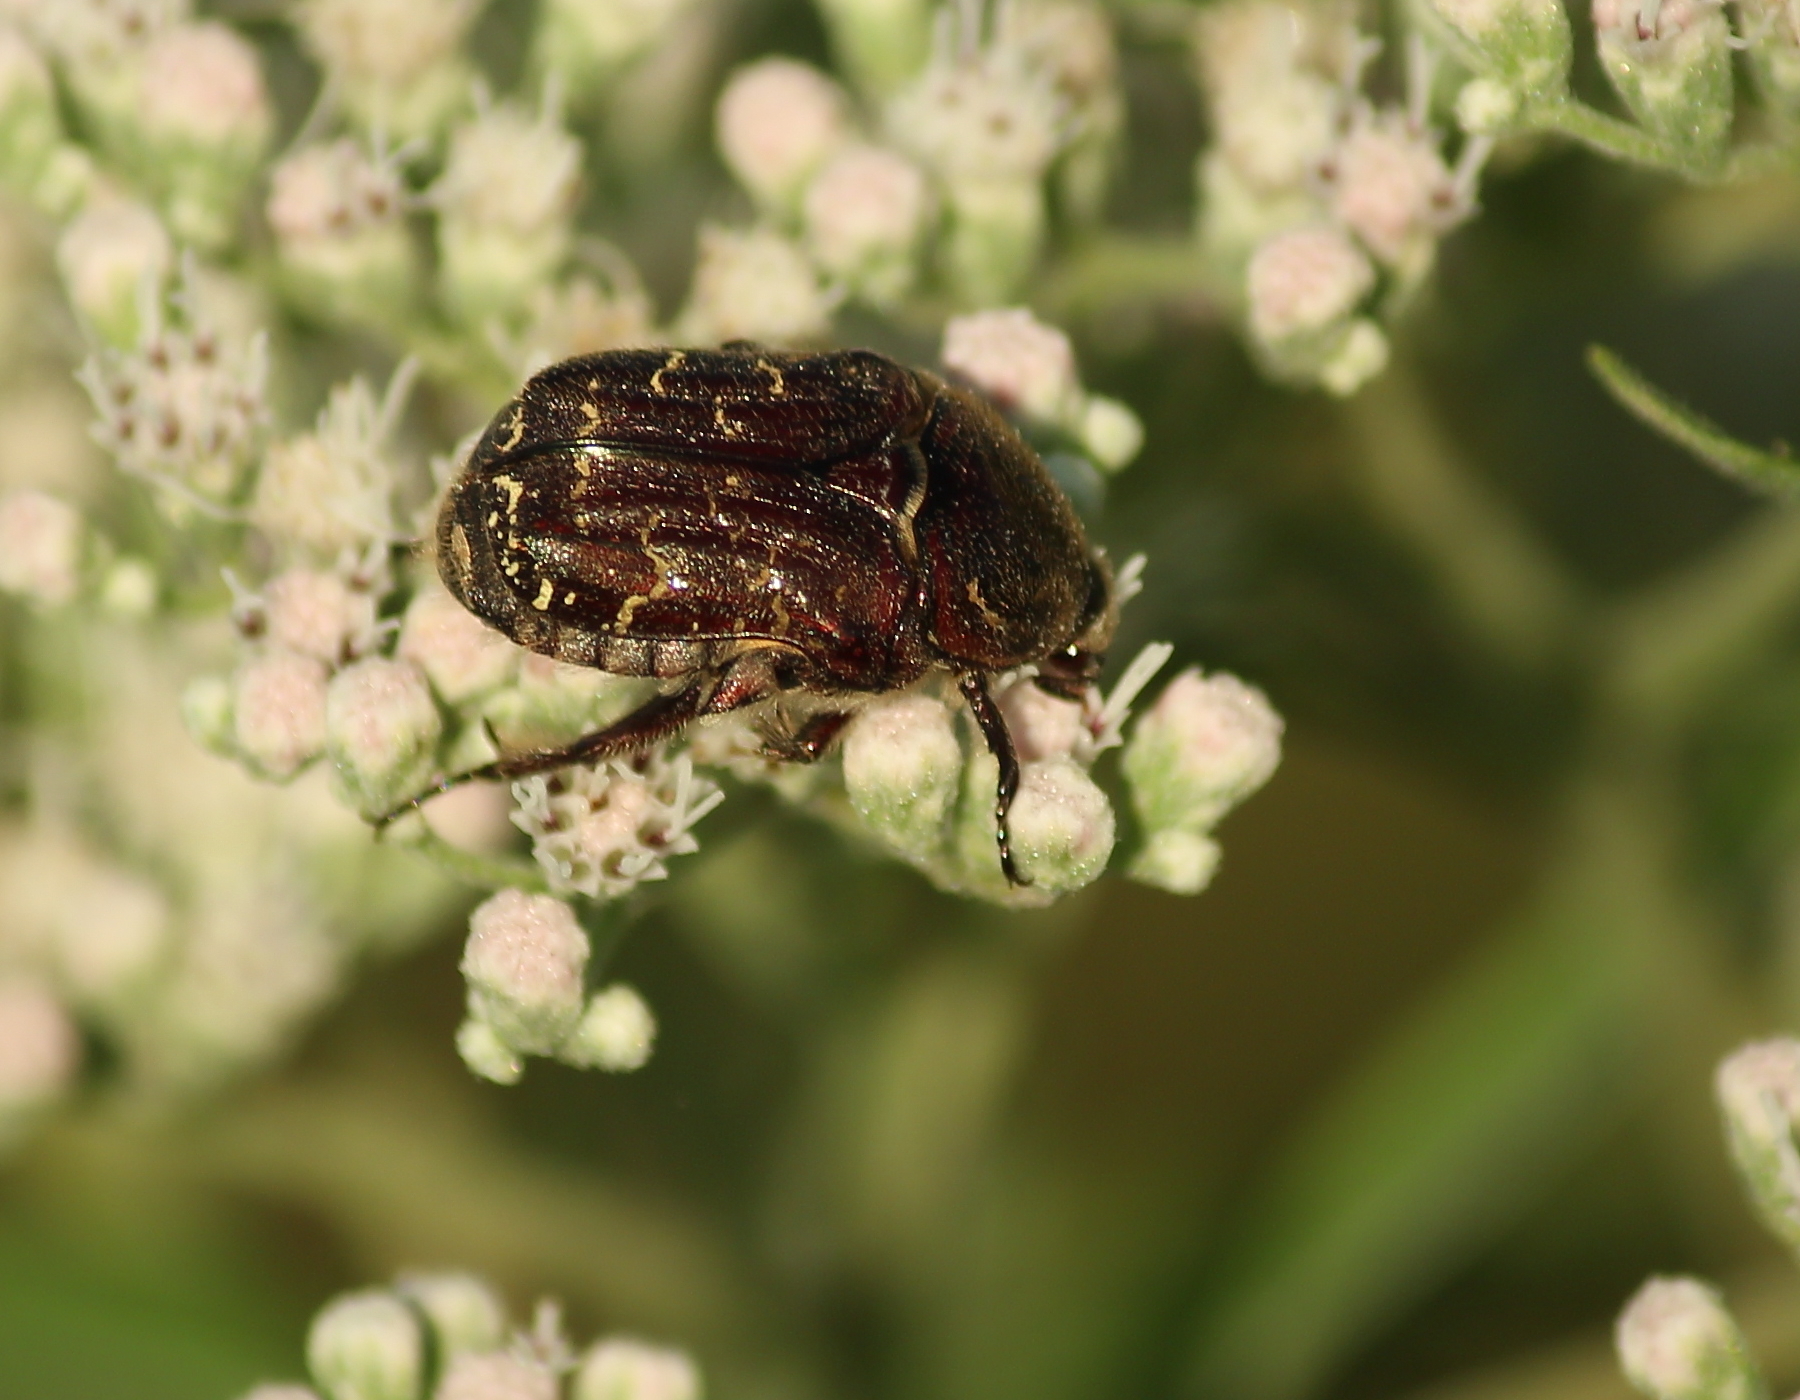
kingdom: Animalia
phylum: Arthropoda
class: Insecta
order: Coleoptera
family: Scarabaeidae
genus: Euphoria
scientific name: Euphoria sepulcralis
